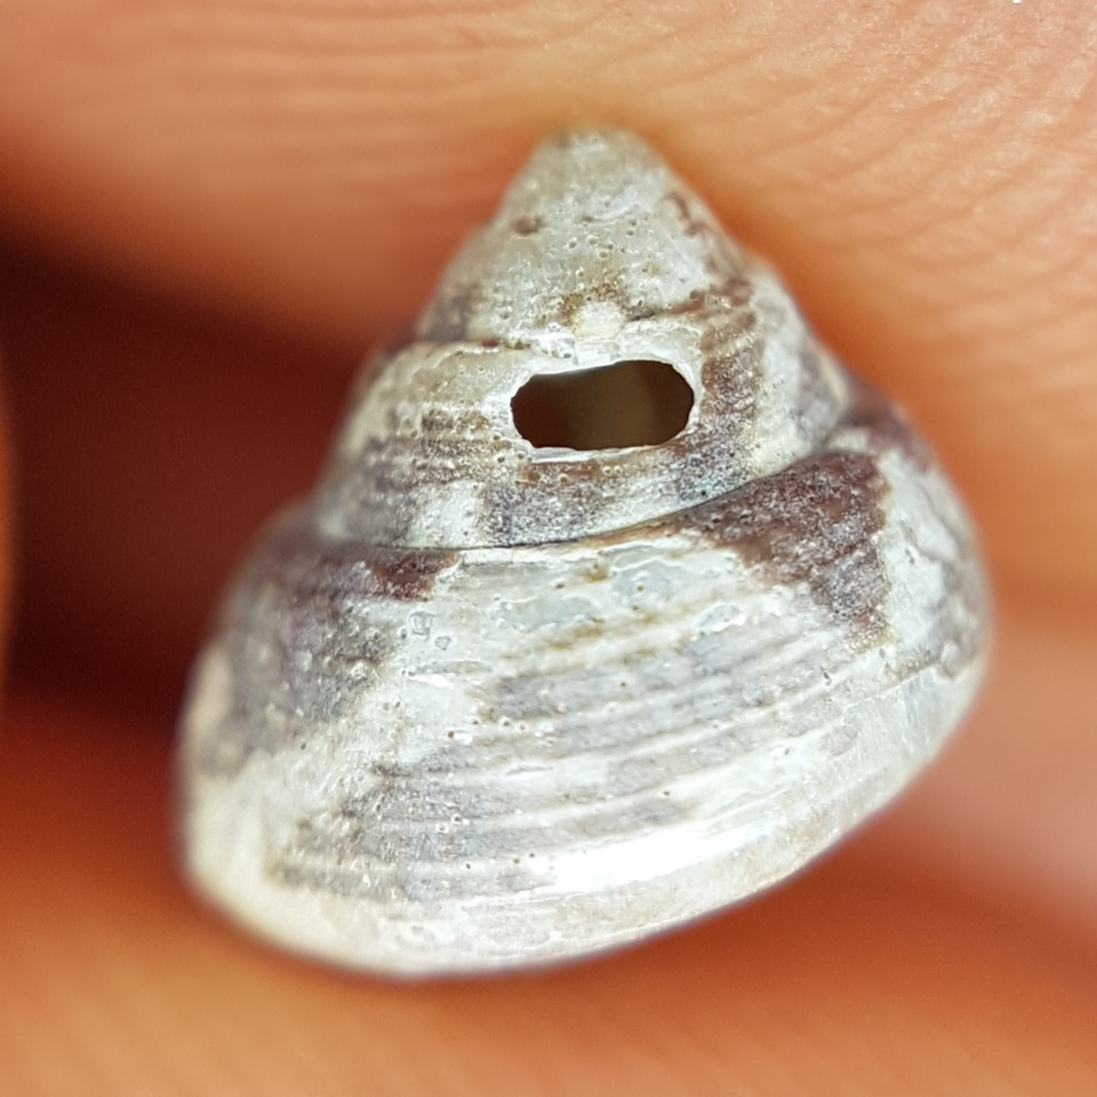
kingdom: Animalia
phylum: Mollusca
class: Gastropoda
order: Trochida
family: Trochidae
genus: Steromphala
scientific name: Steromphala adansonii
